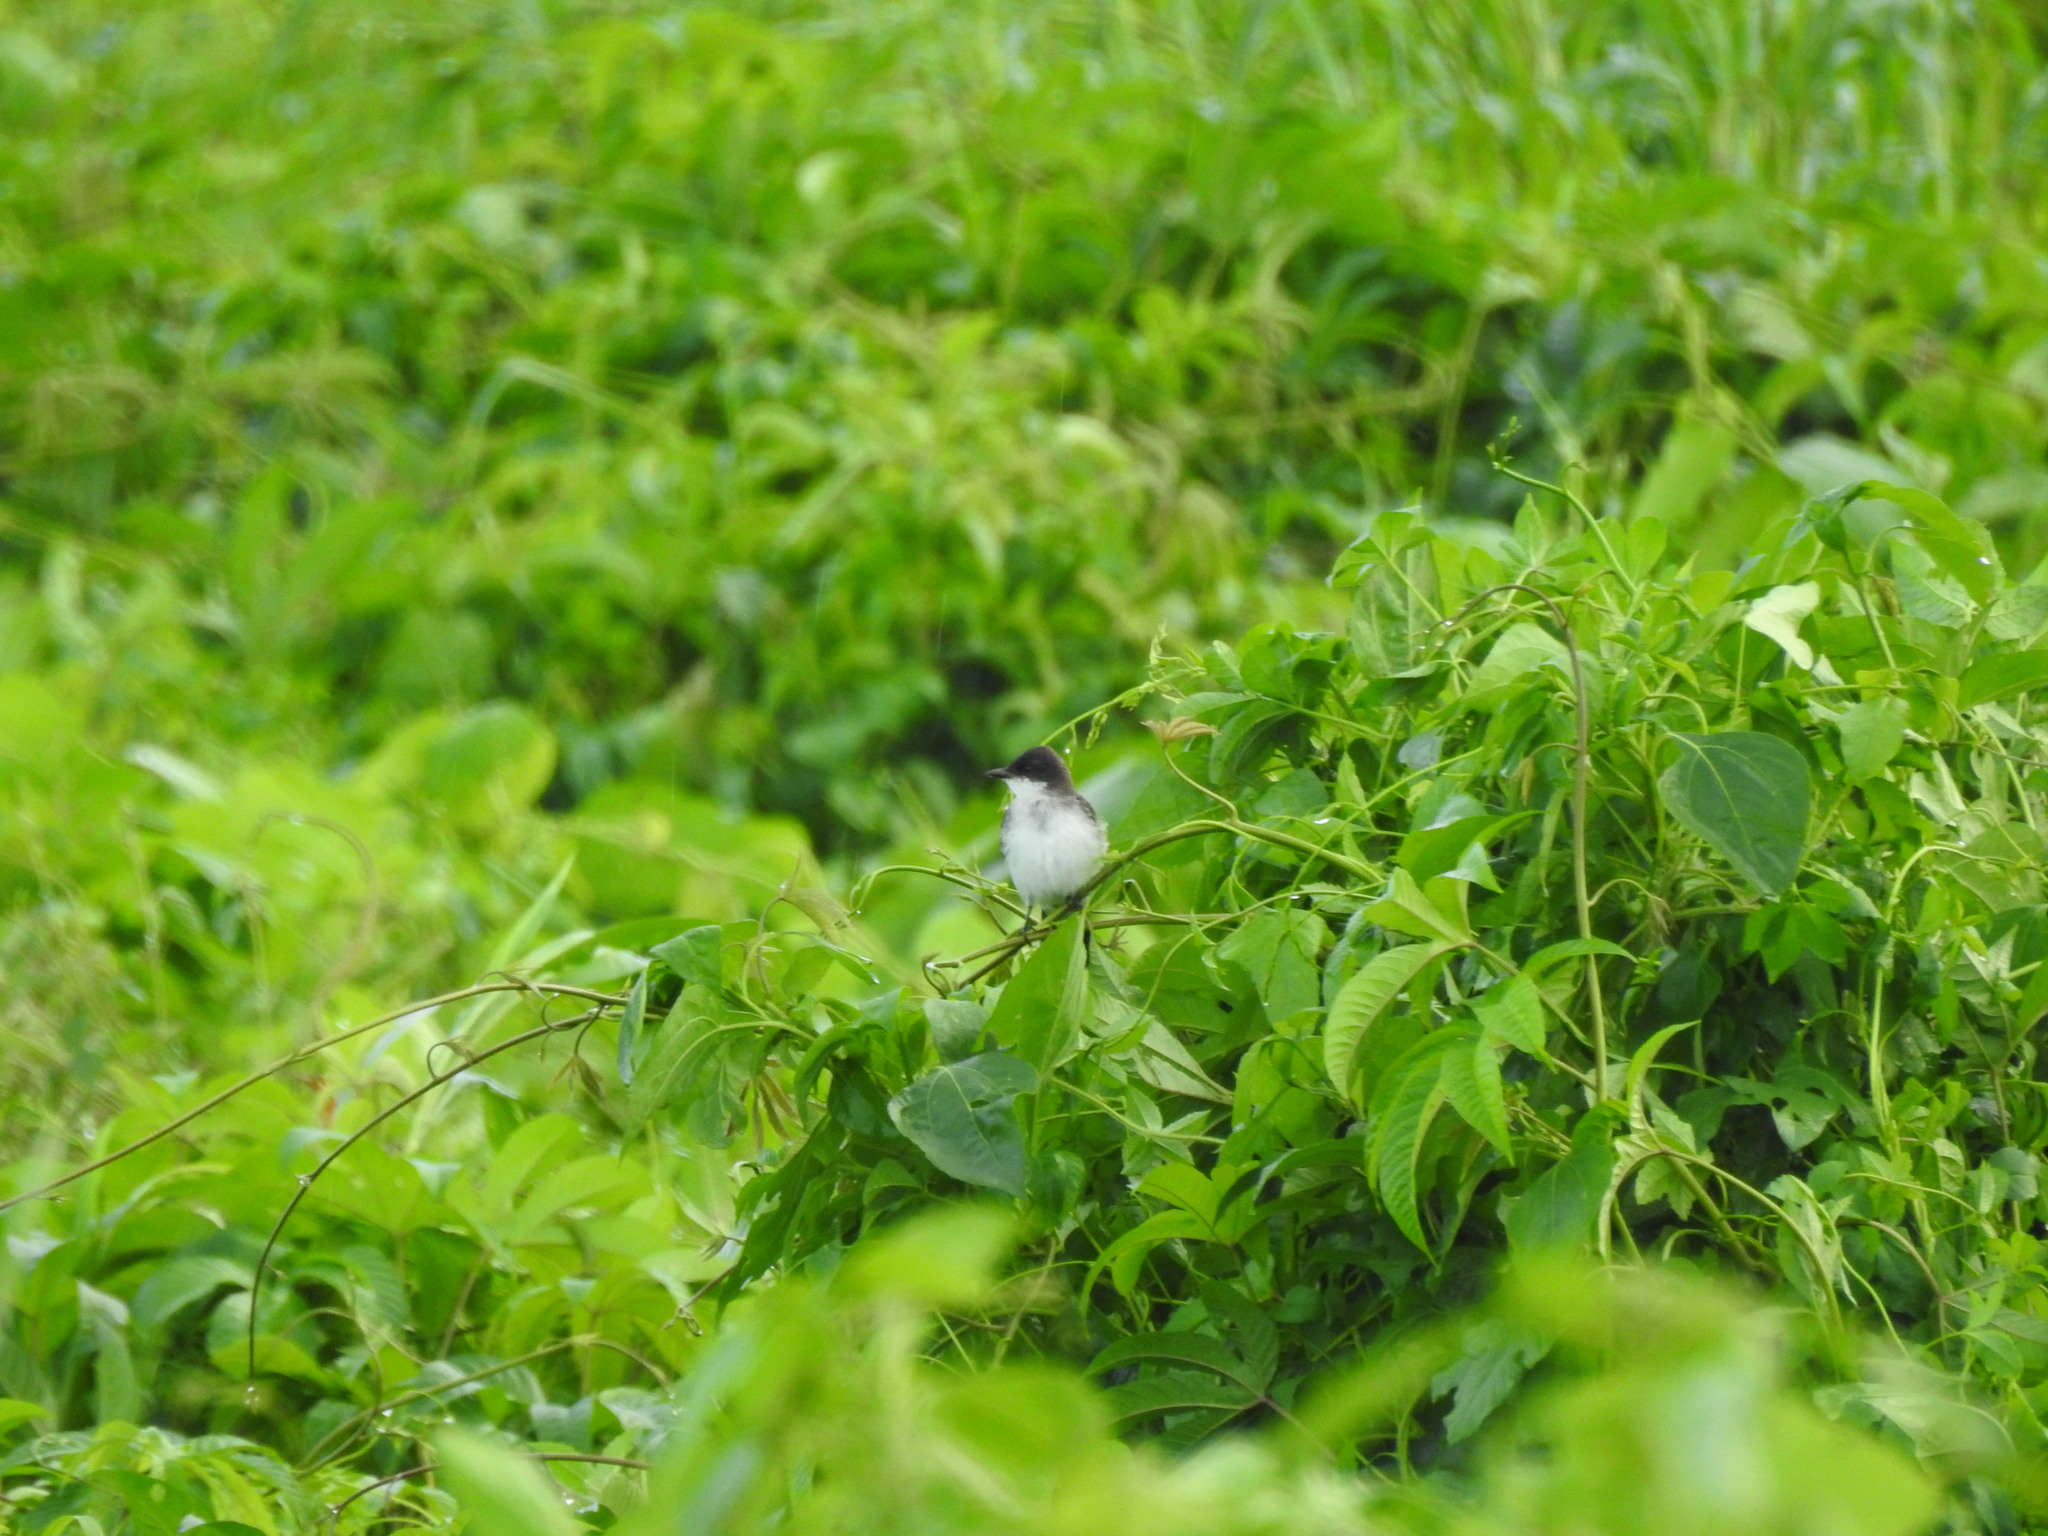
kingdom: Animalia
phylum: Chordata
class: Aves
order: Passeriformes
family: Tyrannidae
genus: Tyrannus
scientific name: Tyrannus tyrannus
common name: Eastern kingbird
